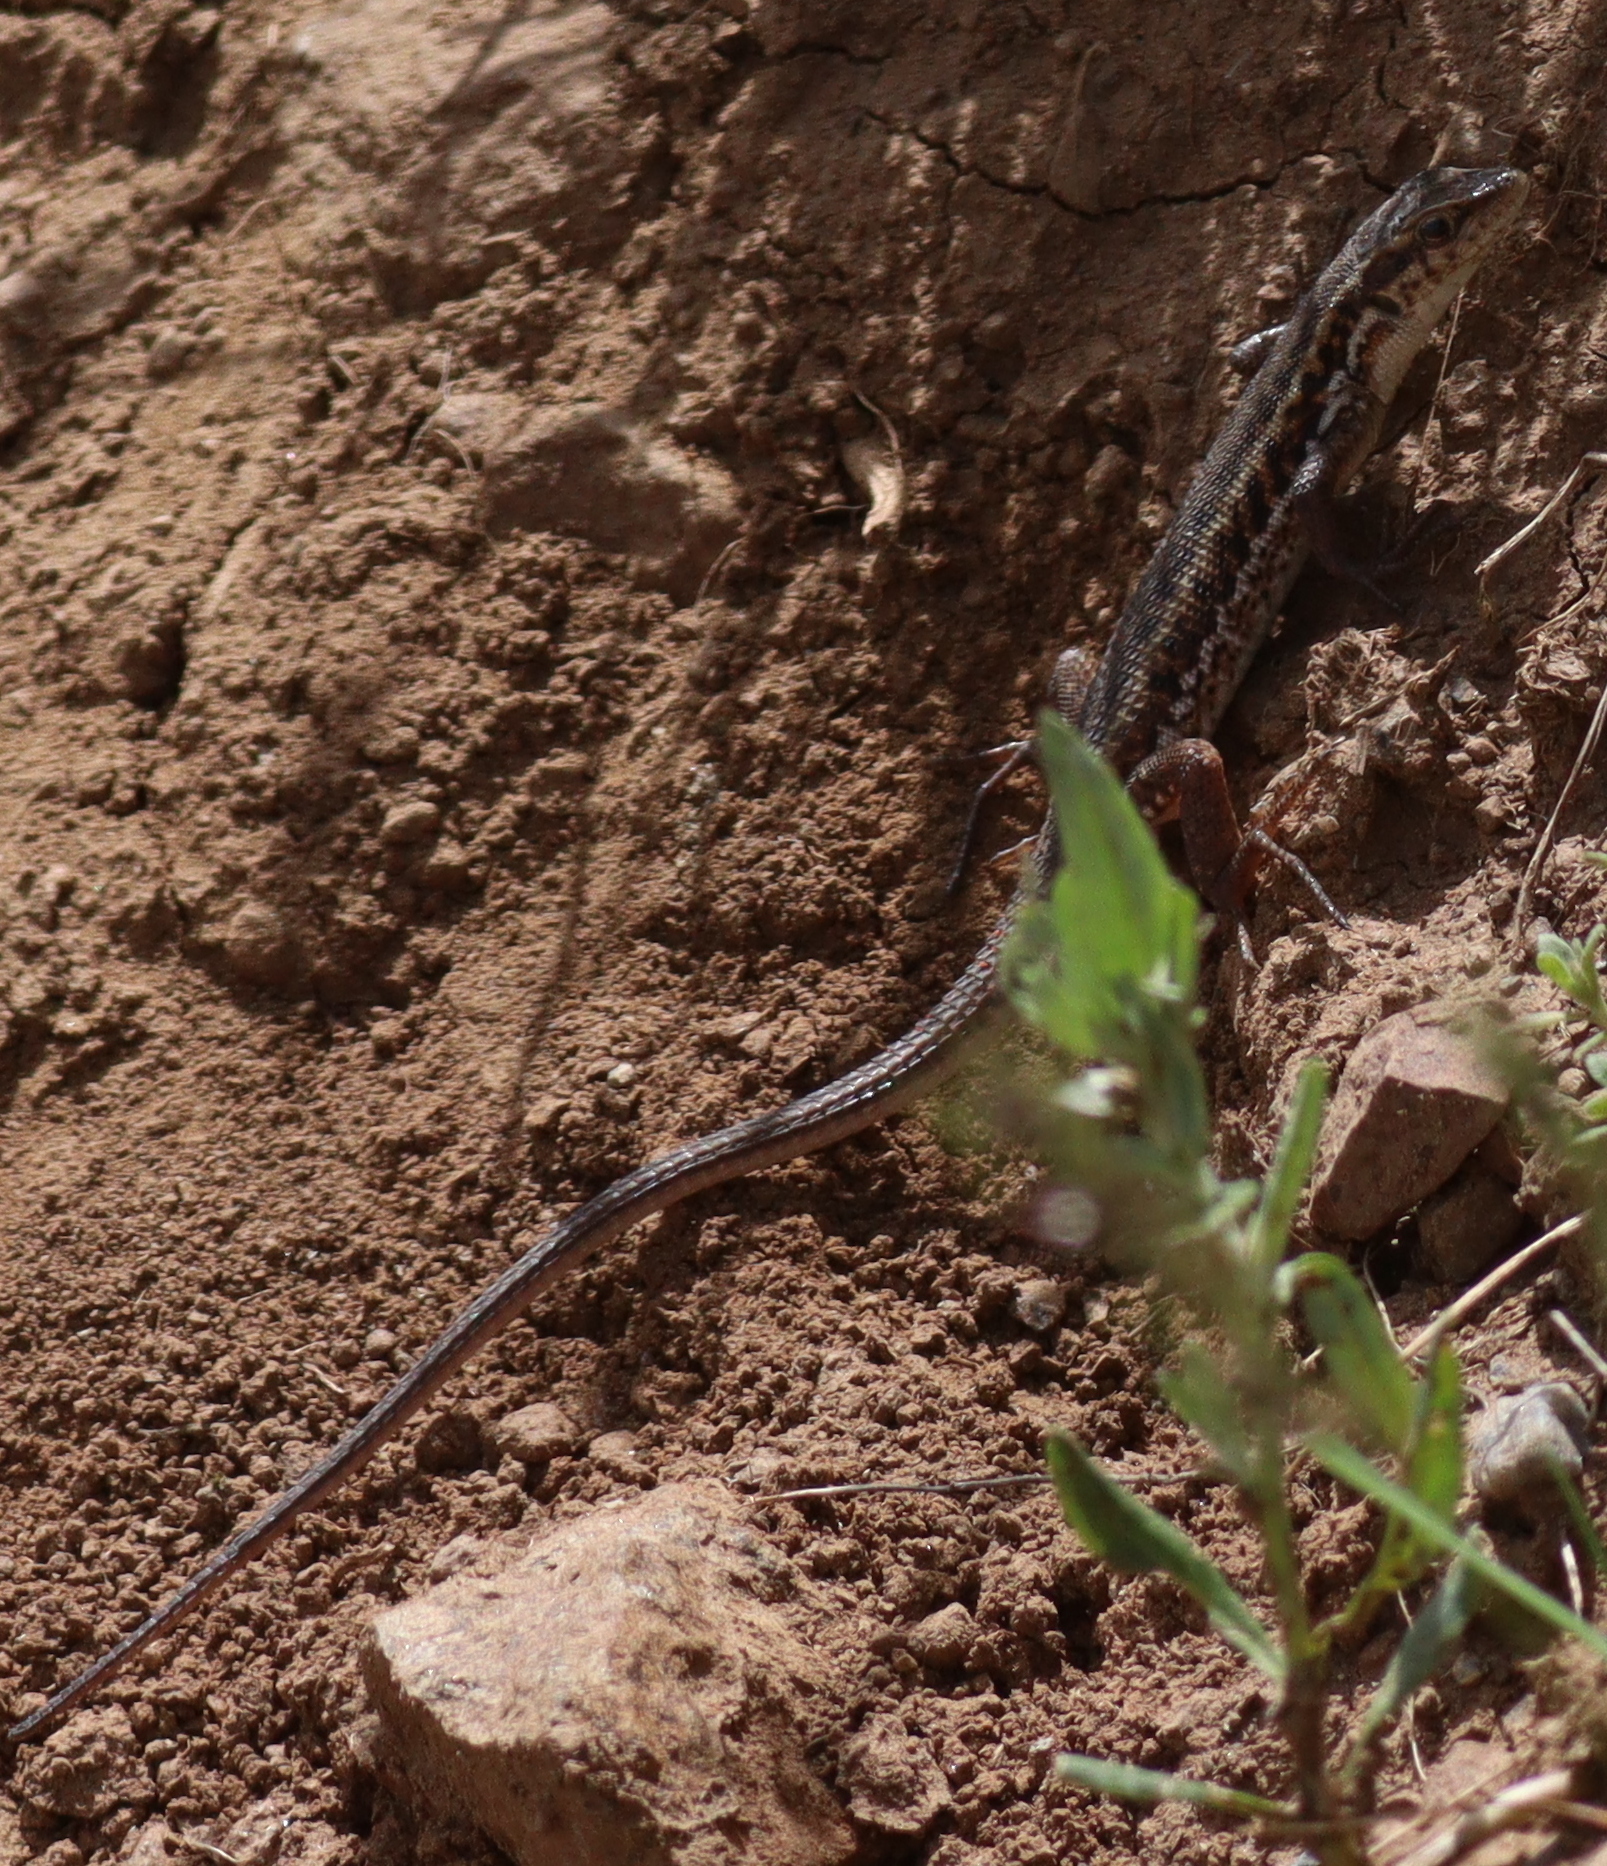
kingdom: Animalia
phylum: Chordata
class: Squamata
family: Lacertidae
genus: Ophisops
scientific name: Ophisops elegans
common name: Snake-eyed lizard
